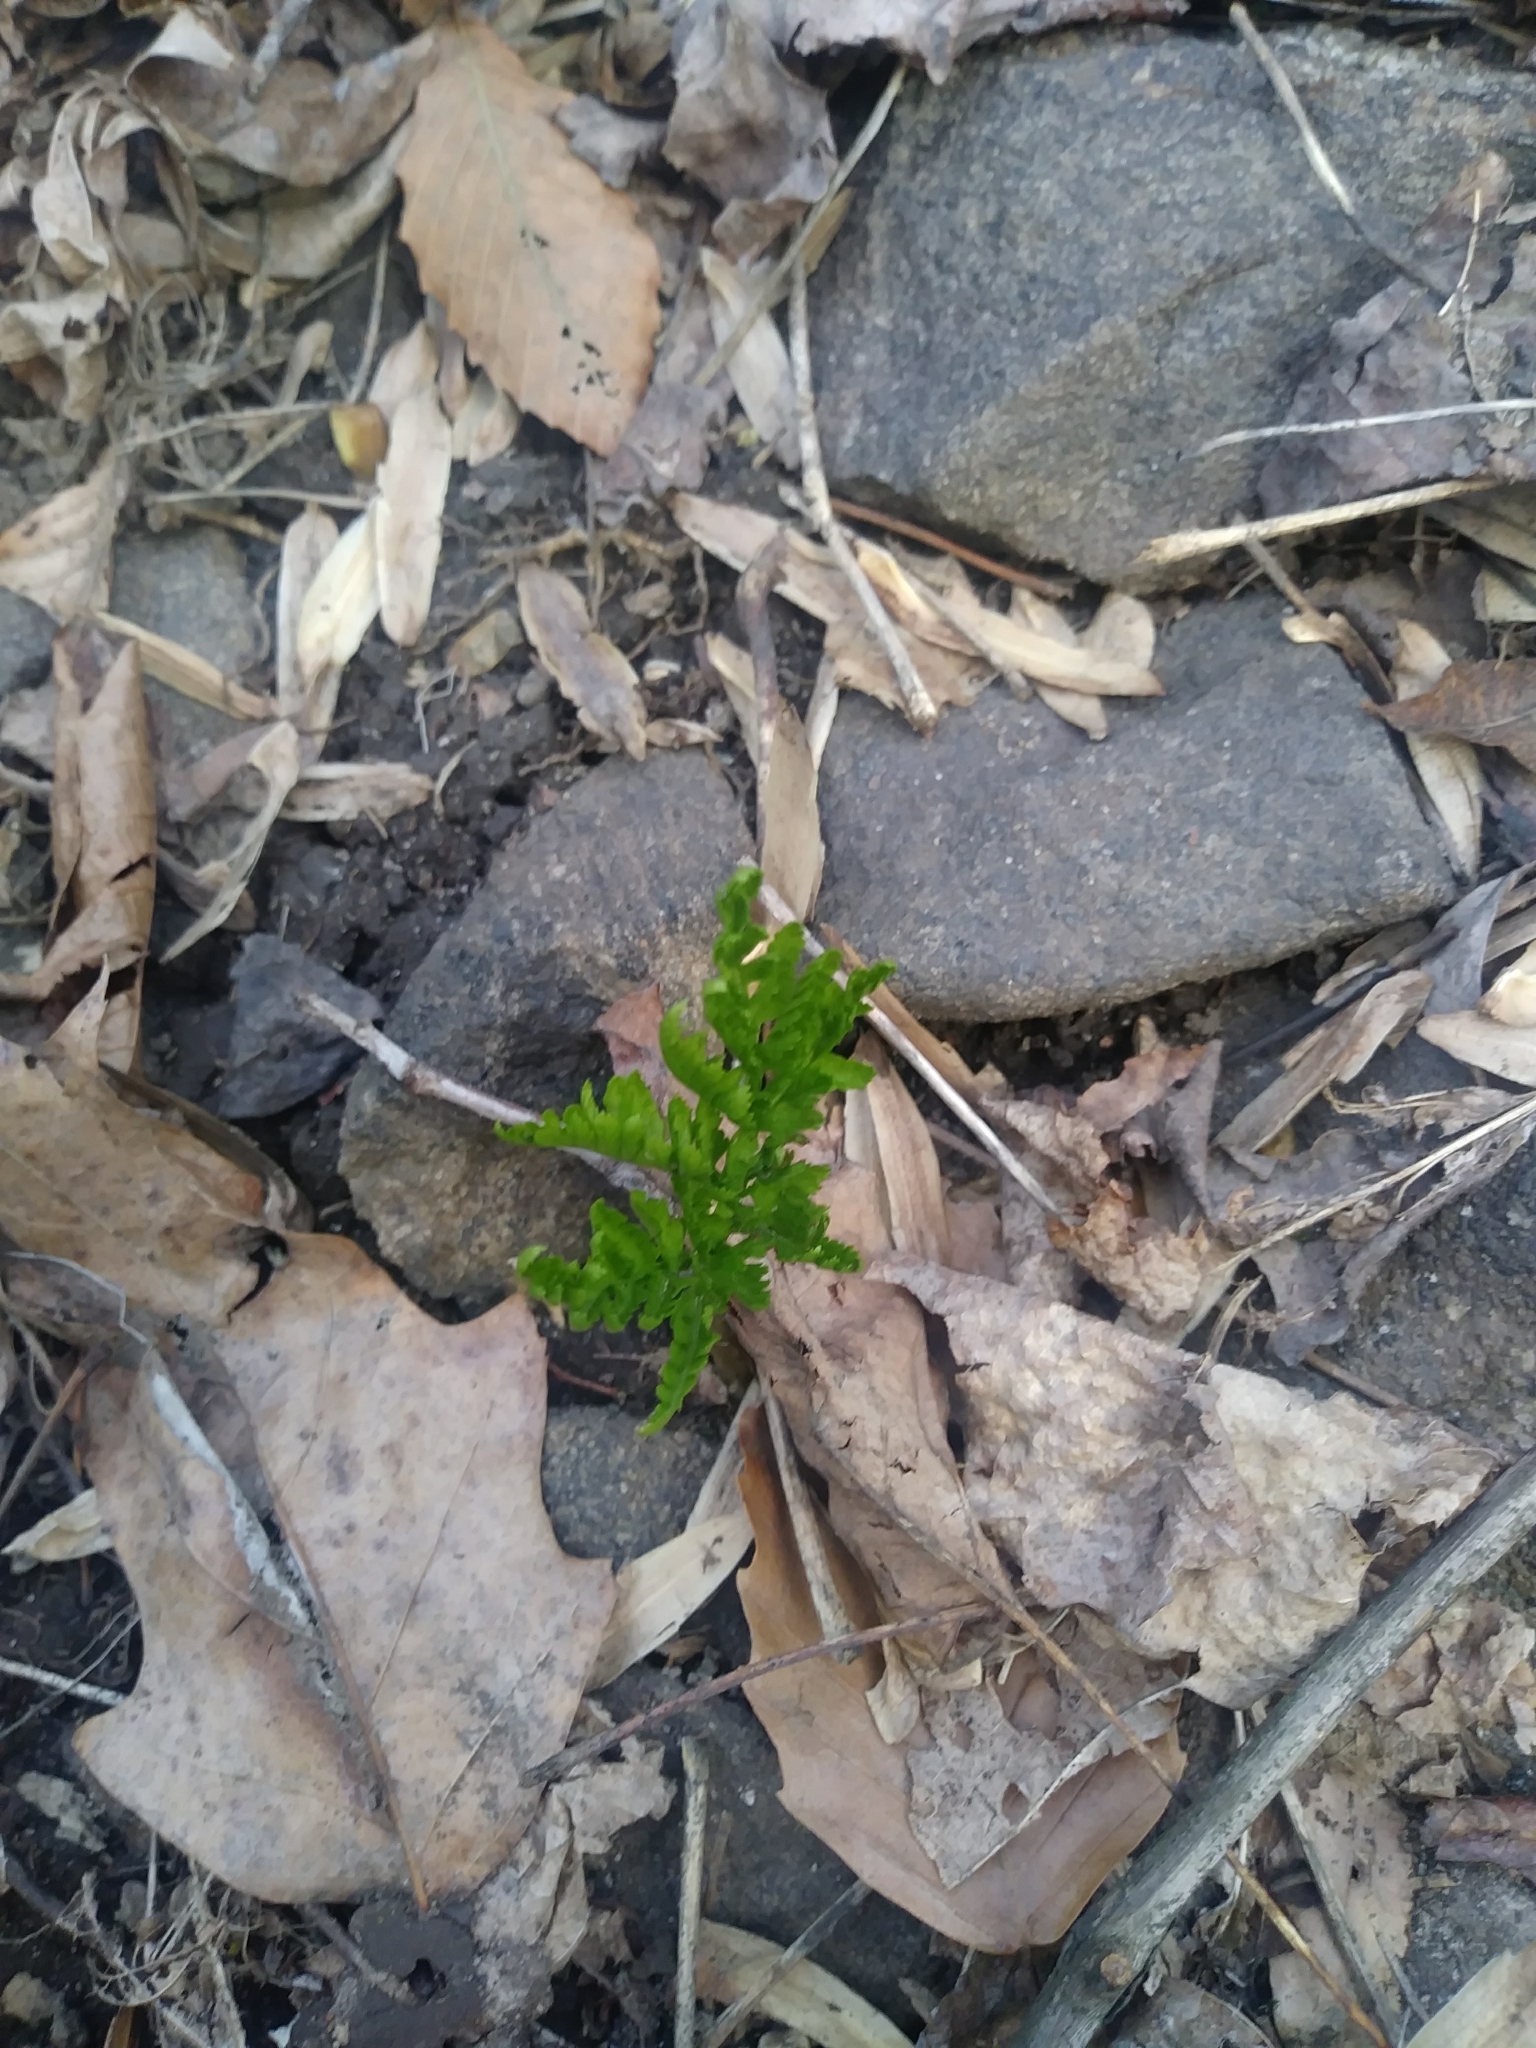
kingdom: Plantae
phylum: Tracheophyta
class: Polypodiopsida
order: Ophioglossales
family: Ophioglossaceae
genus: Botrypus
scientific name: Botrypus virginianus
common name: Common grapefern
